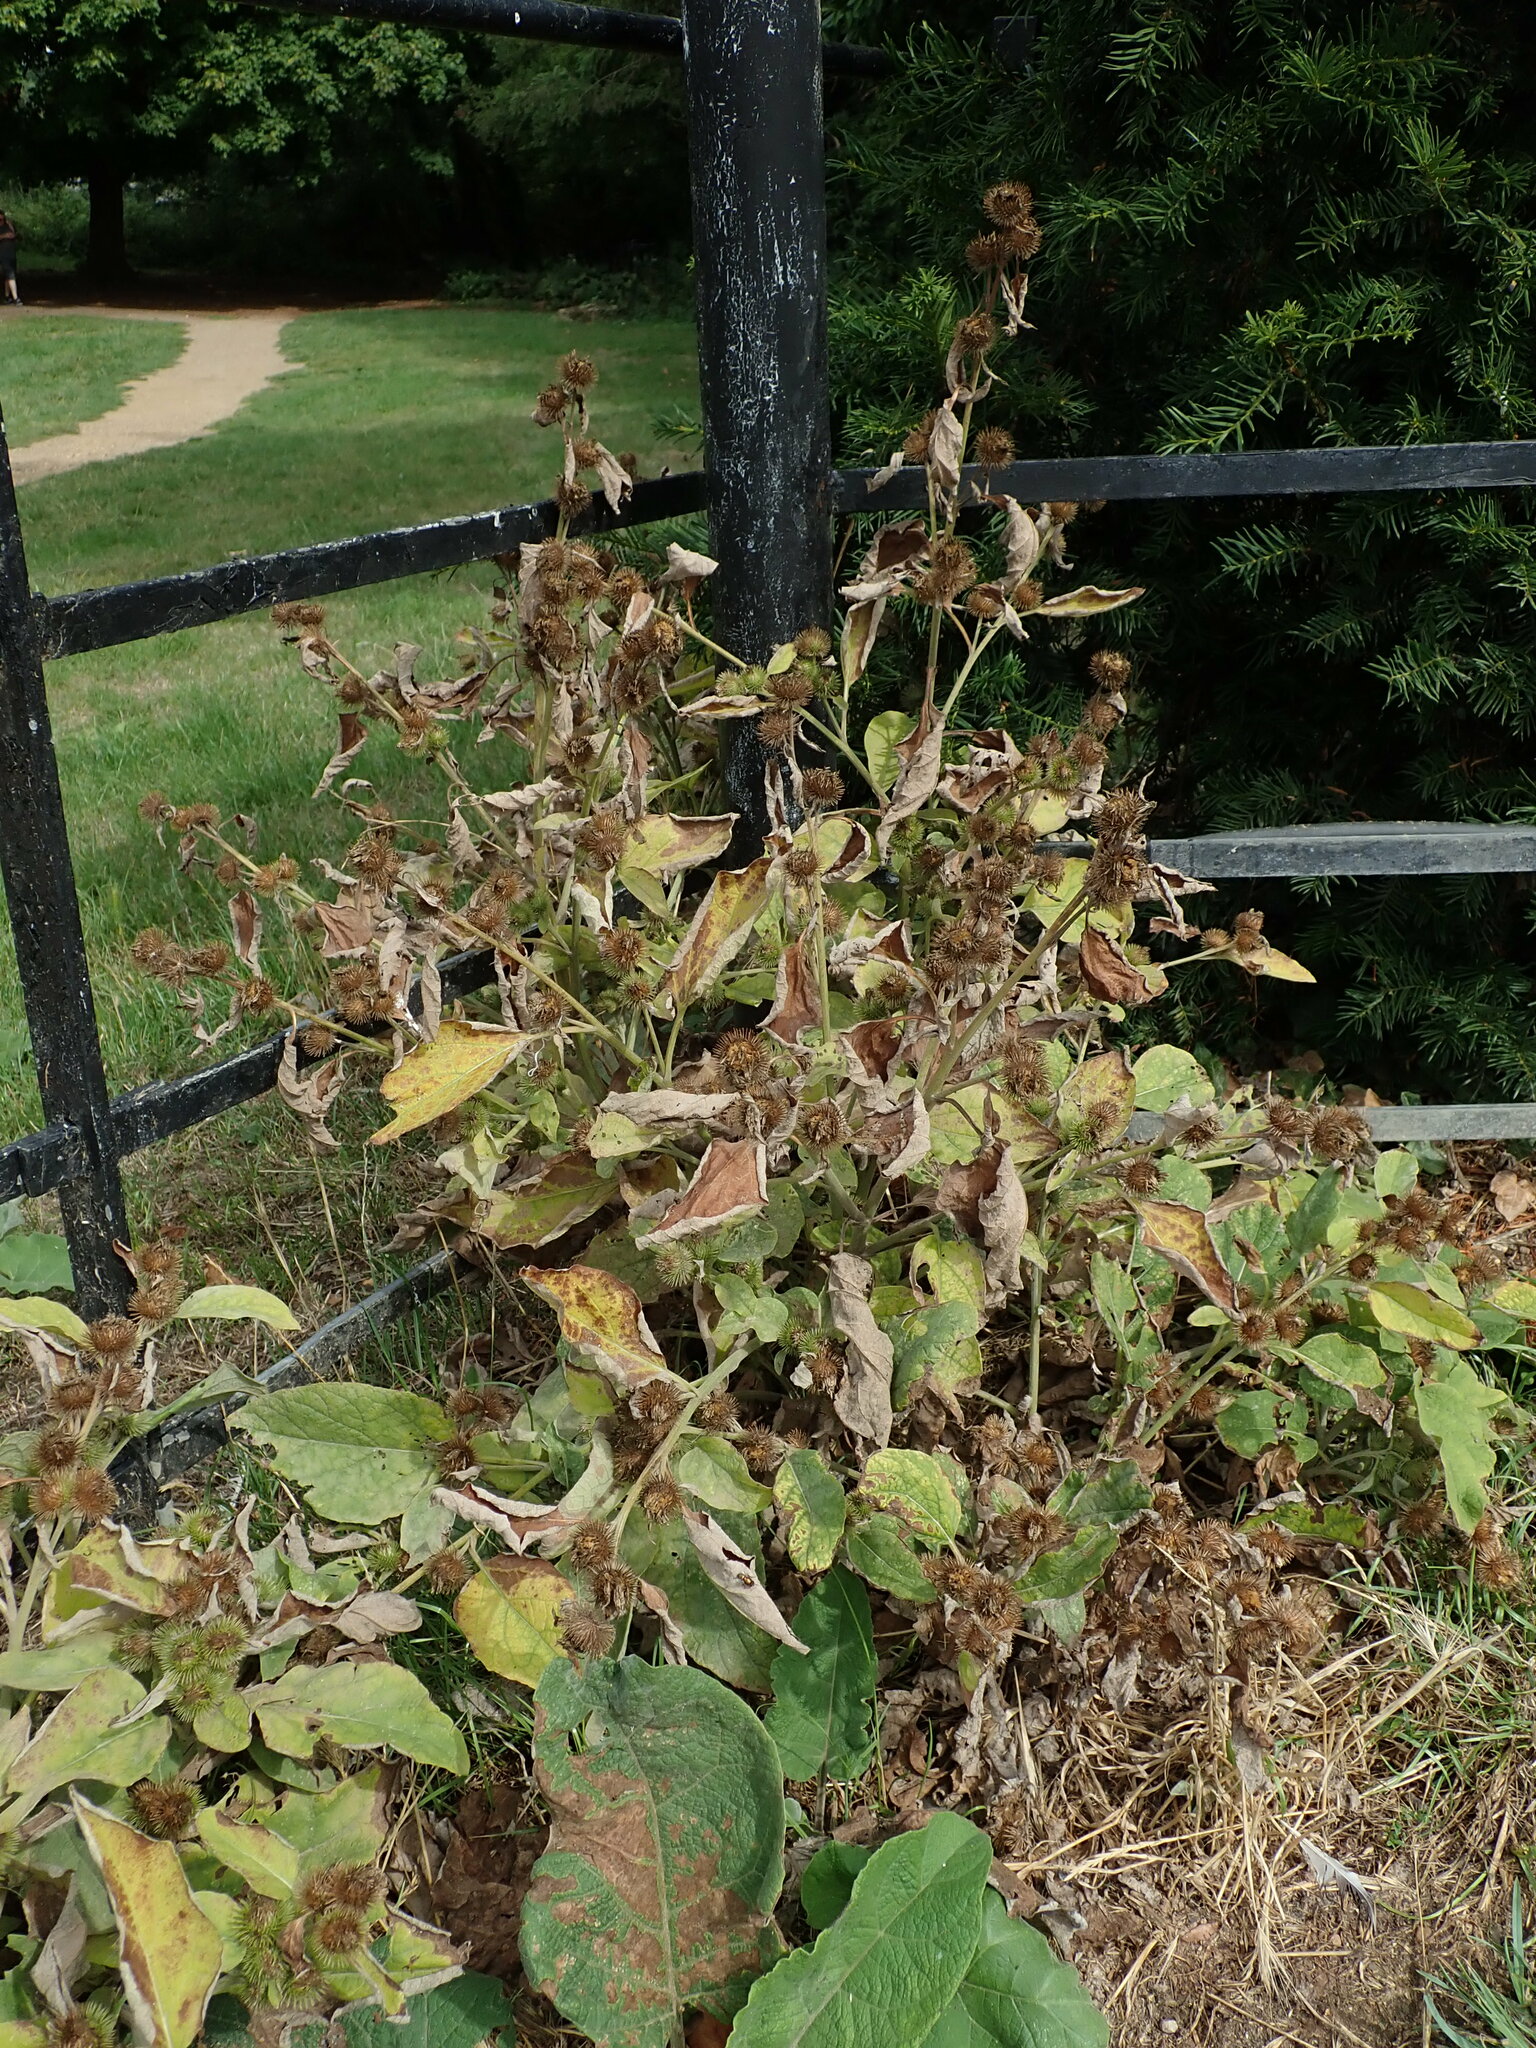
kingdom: Plantae
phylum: Tracheophyta
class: Magnoliopsida
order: Asterales
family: Asteraceae
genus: Arctium
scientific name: Arctium minus
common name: Lesser burdock
